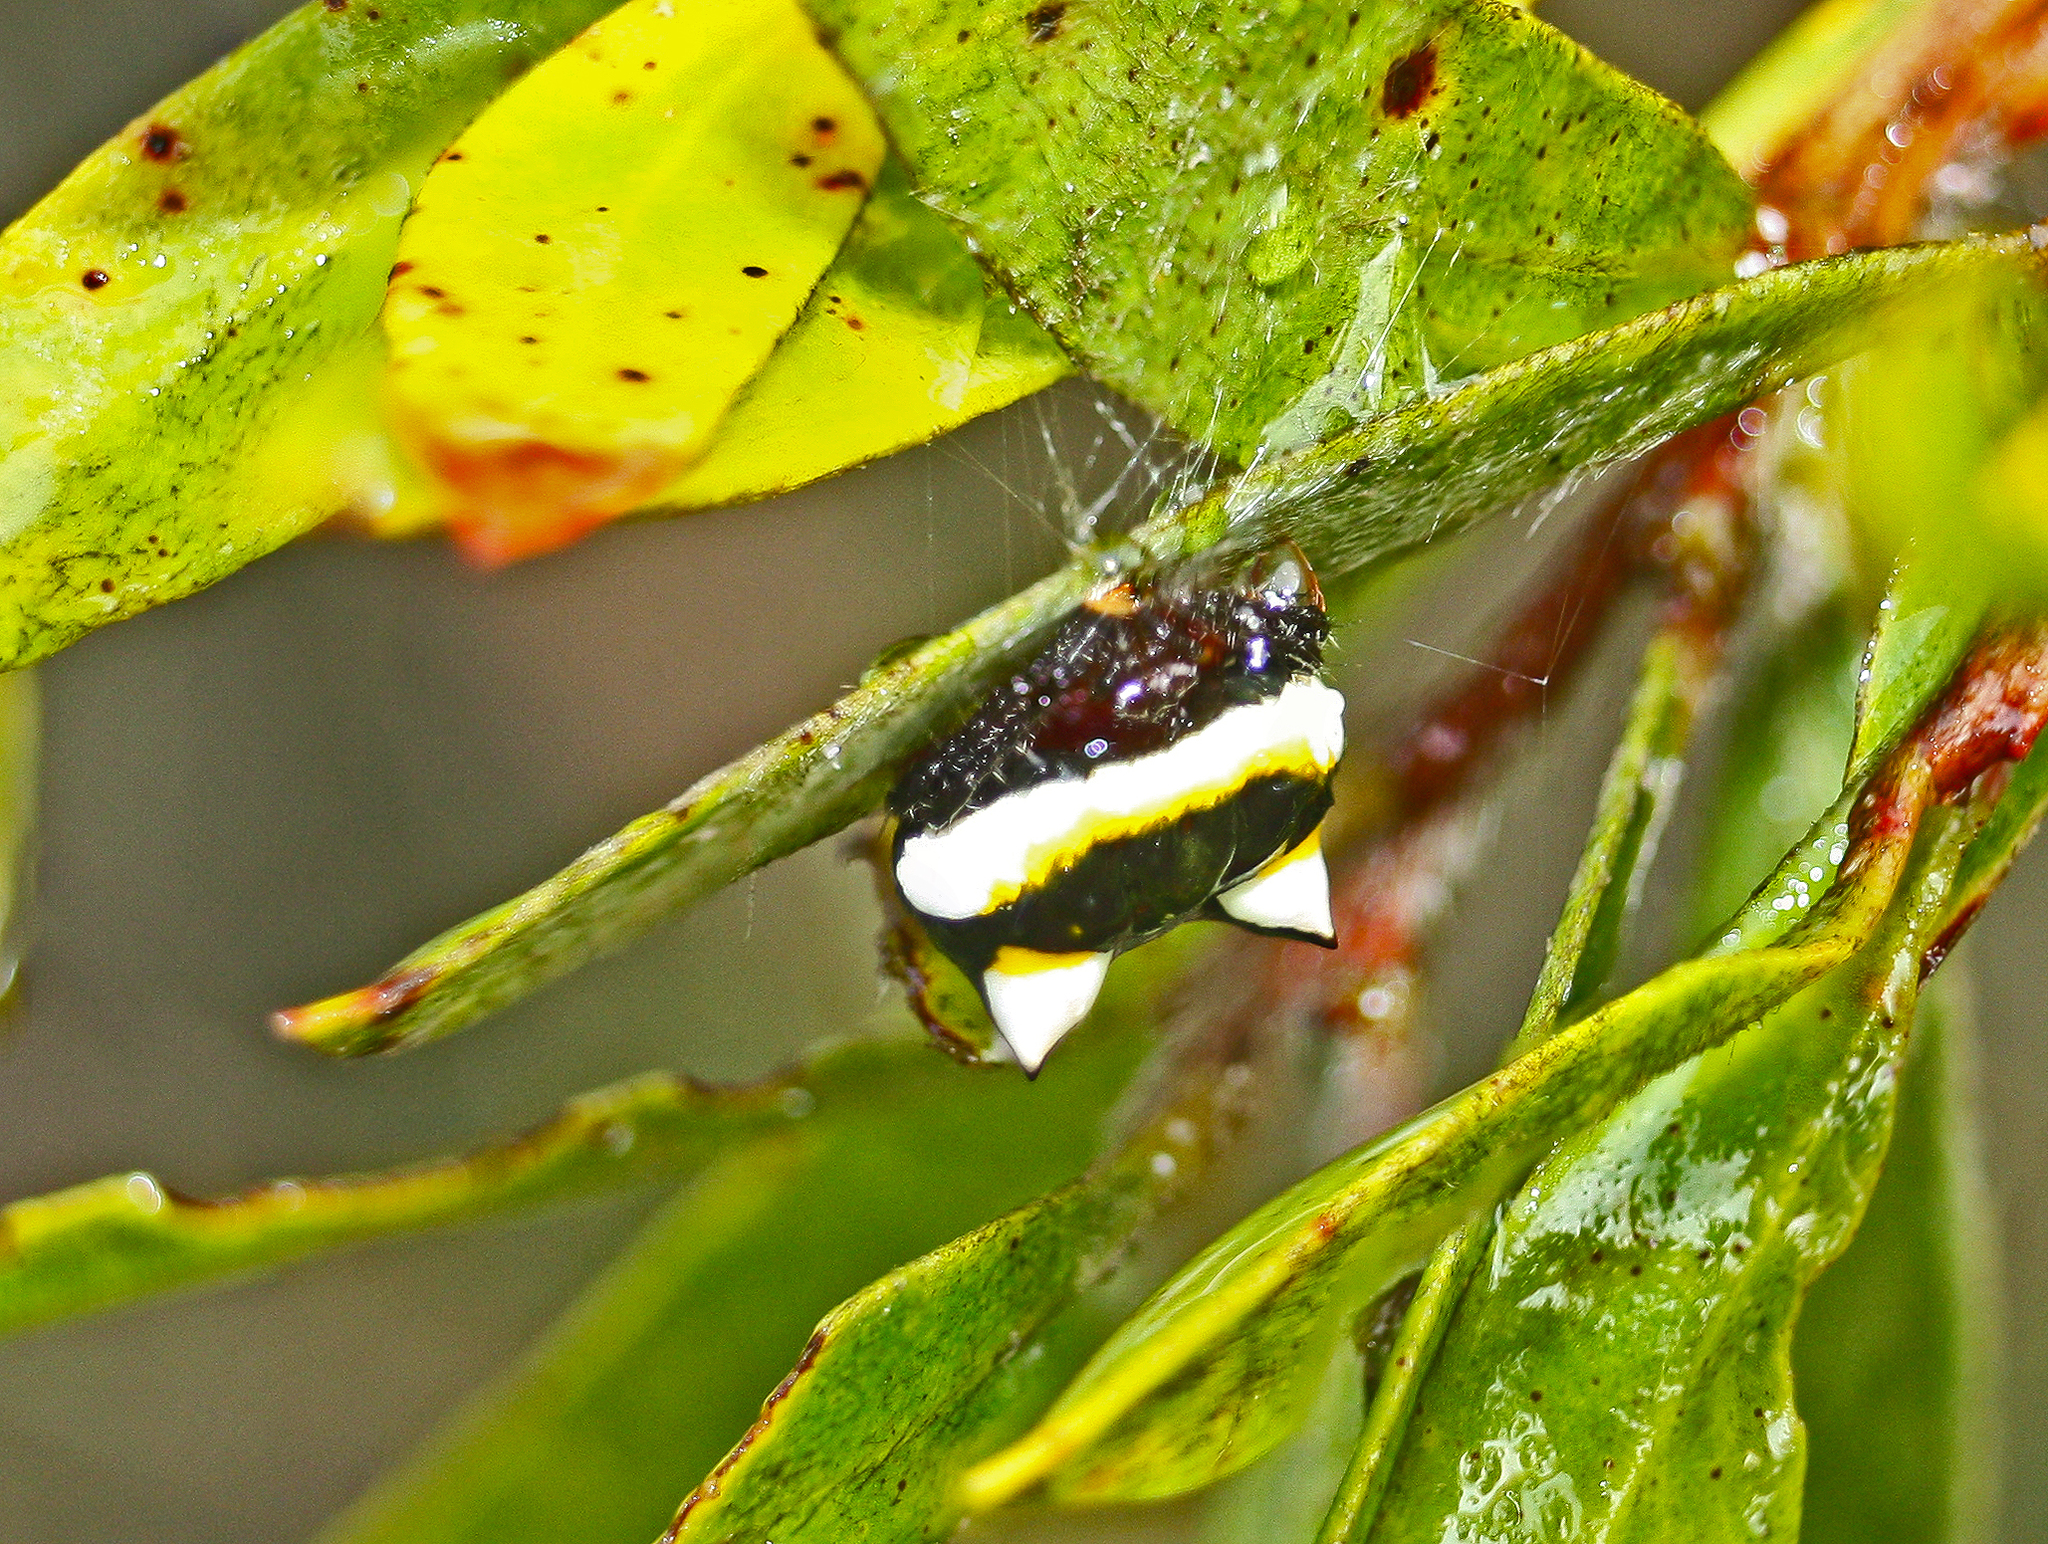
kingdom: Animalia
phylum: Arthropoda
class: Arachnida
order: Araneae
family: Araneidae
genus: Poecilopachys
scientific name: Poecilopachys australasia
